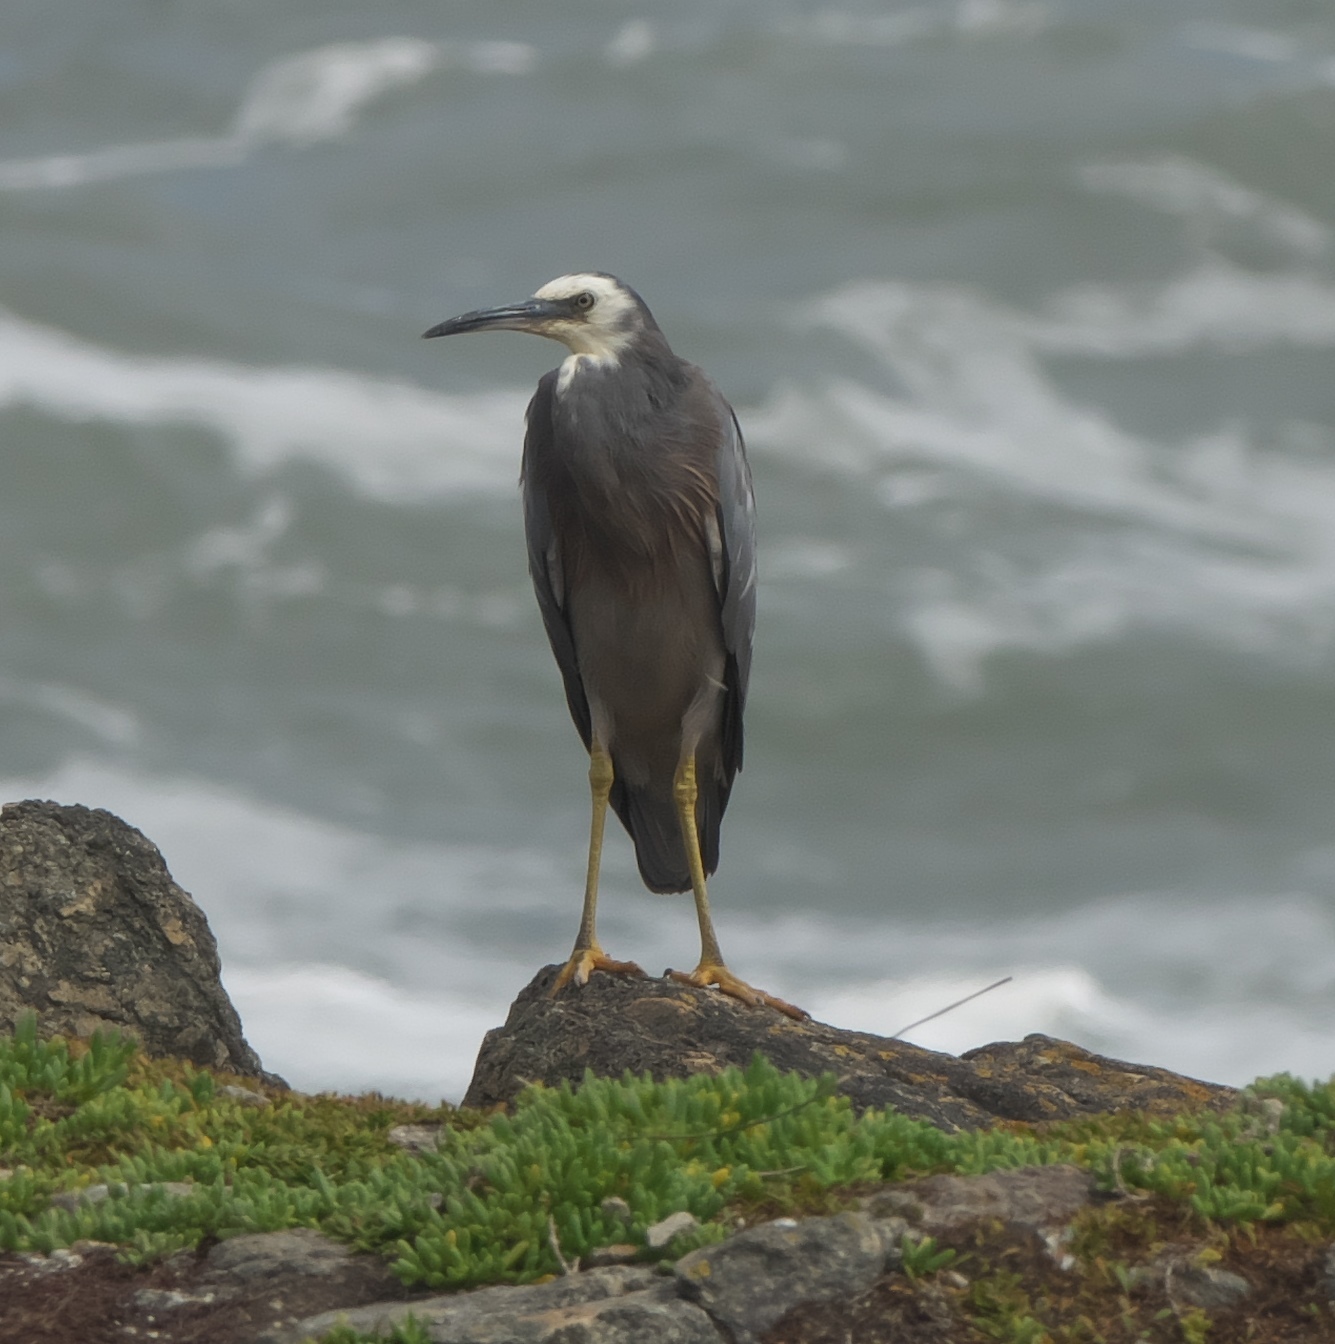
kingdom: Animalia
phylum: Chordata
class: Aves
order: Pelecaniformes
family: Ardeidae
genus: Egretta
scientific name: Egretta novaehollandiae
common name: White-faced heron
